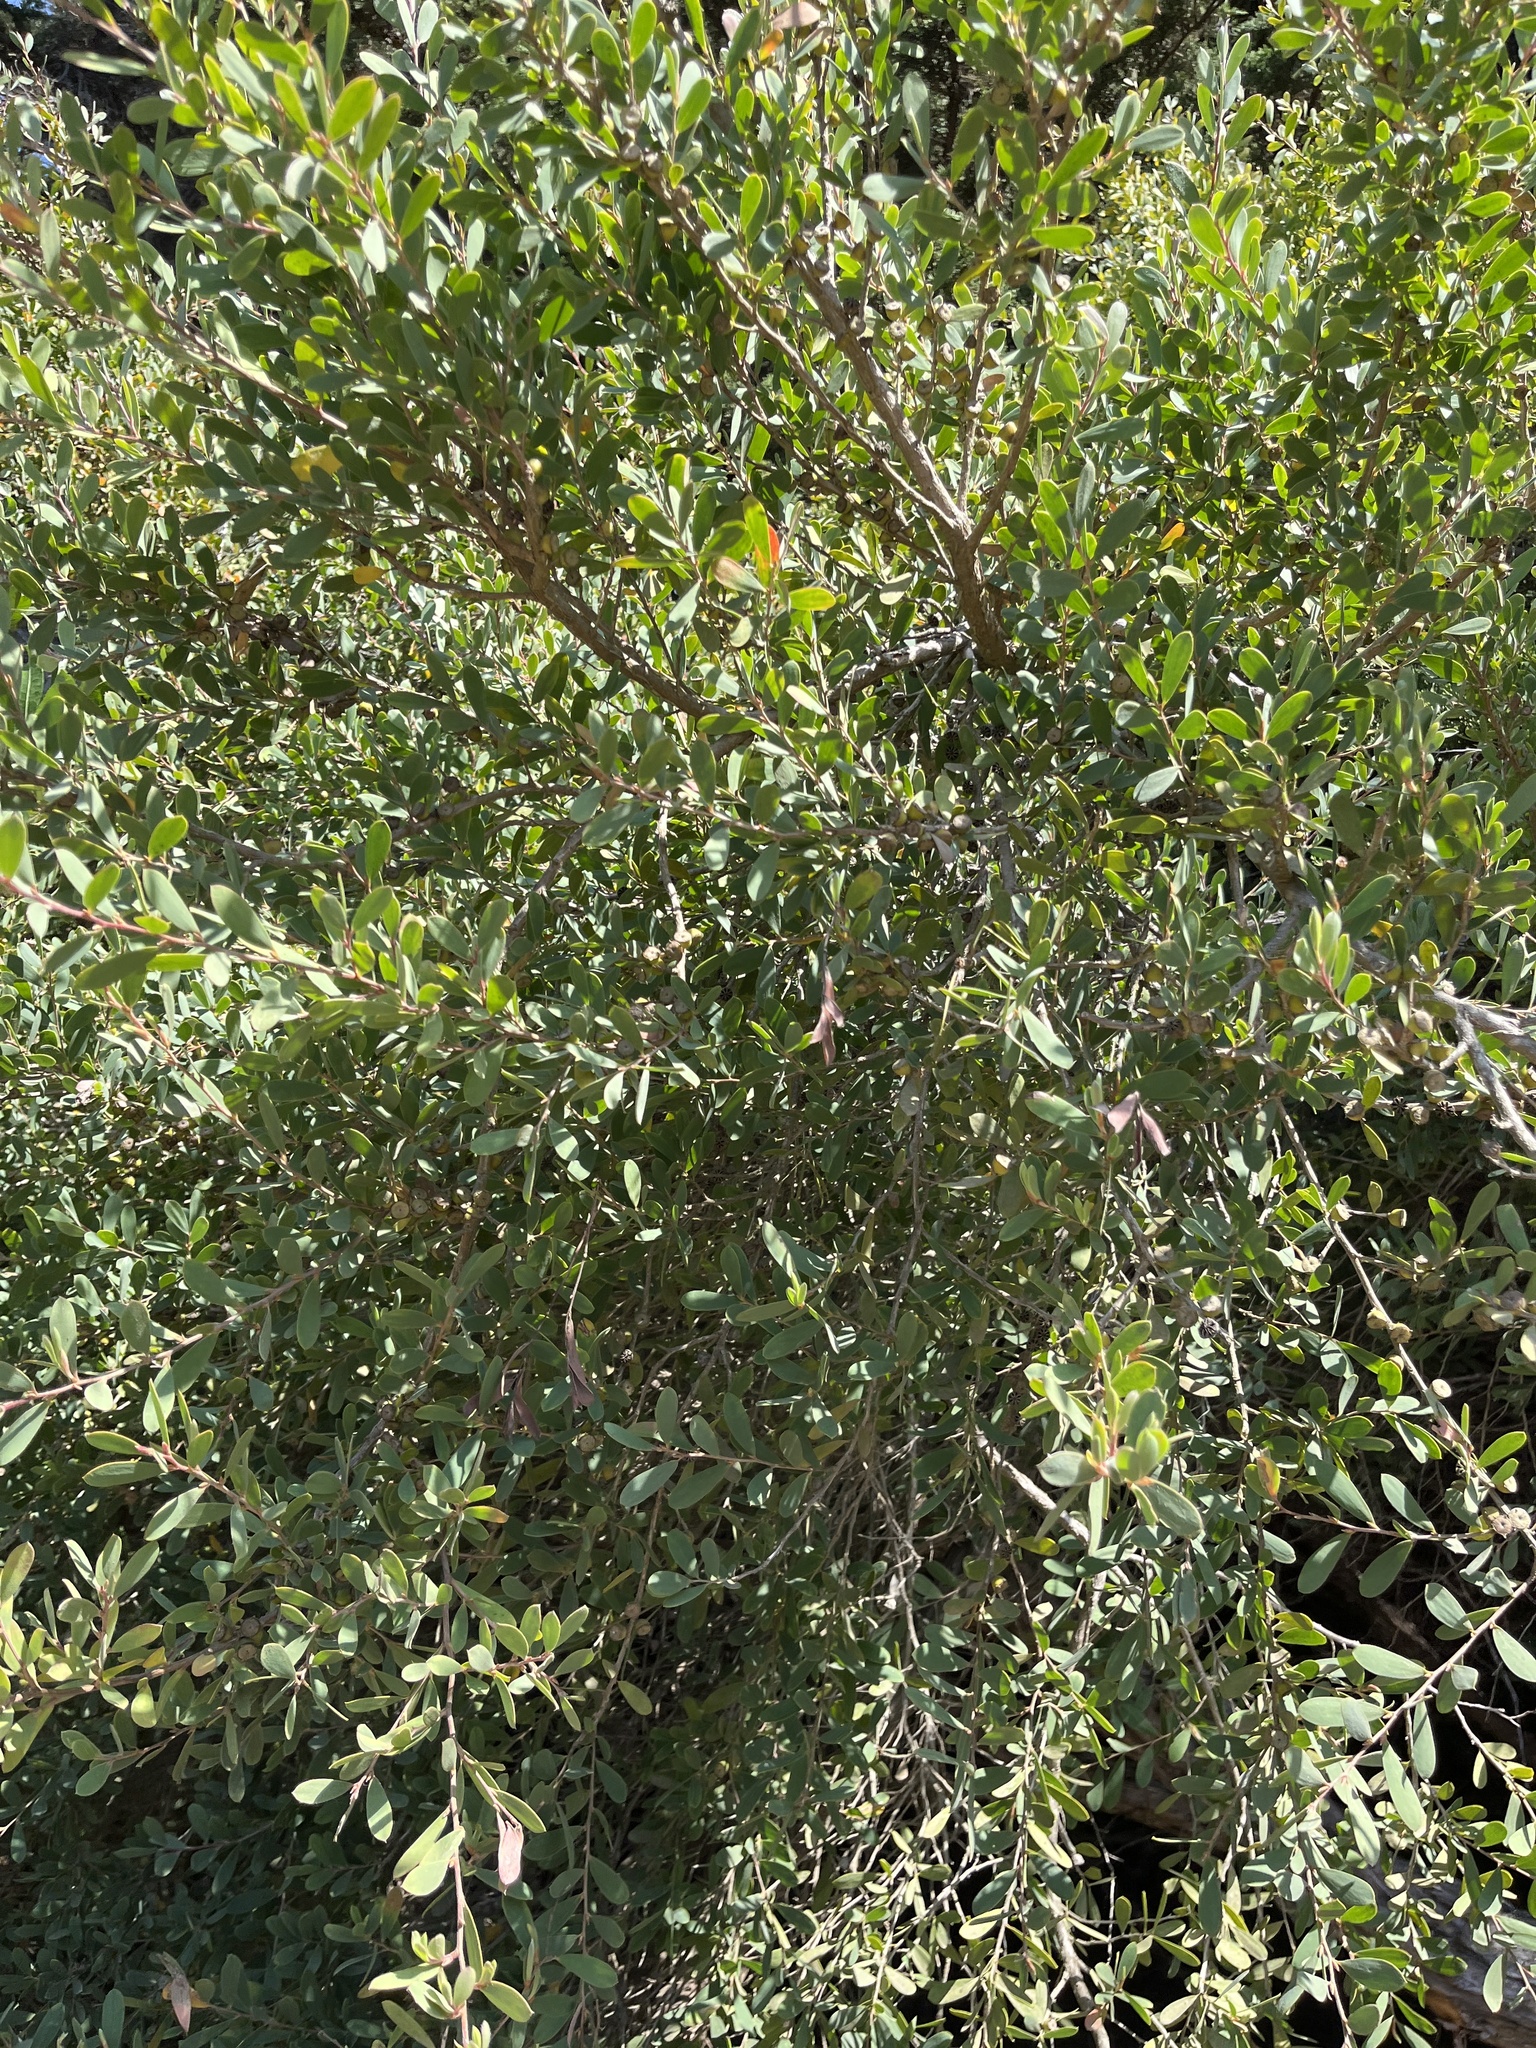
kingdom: Plantae
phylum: Tracheophyta
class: Magnoliopsida
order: Myrtales
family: Myrtaceae
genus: Leptospermum
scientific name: Leptospermum laevigatum
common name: Australian teatree
